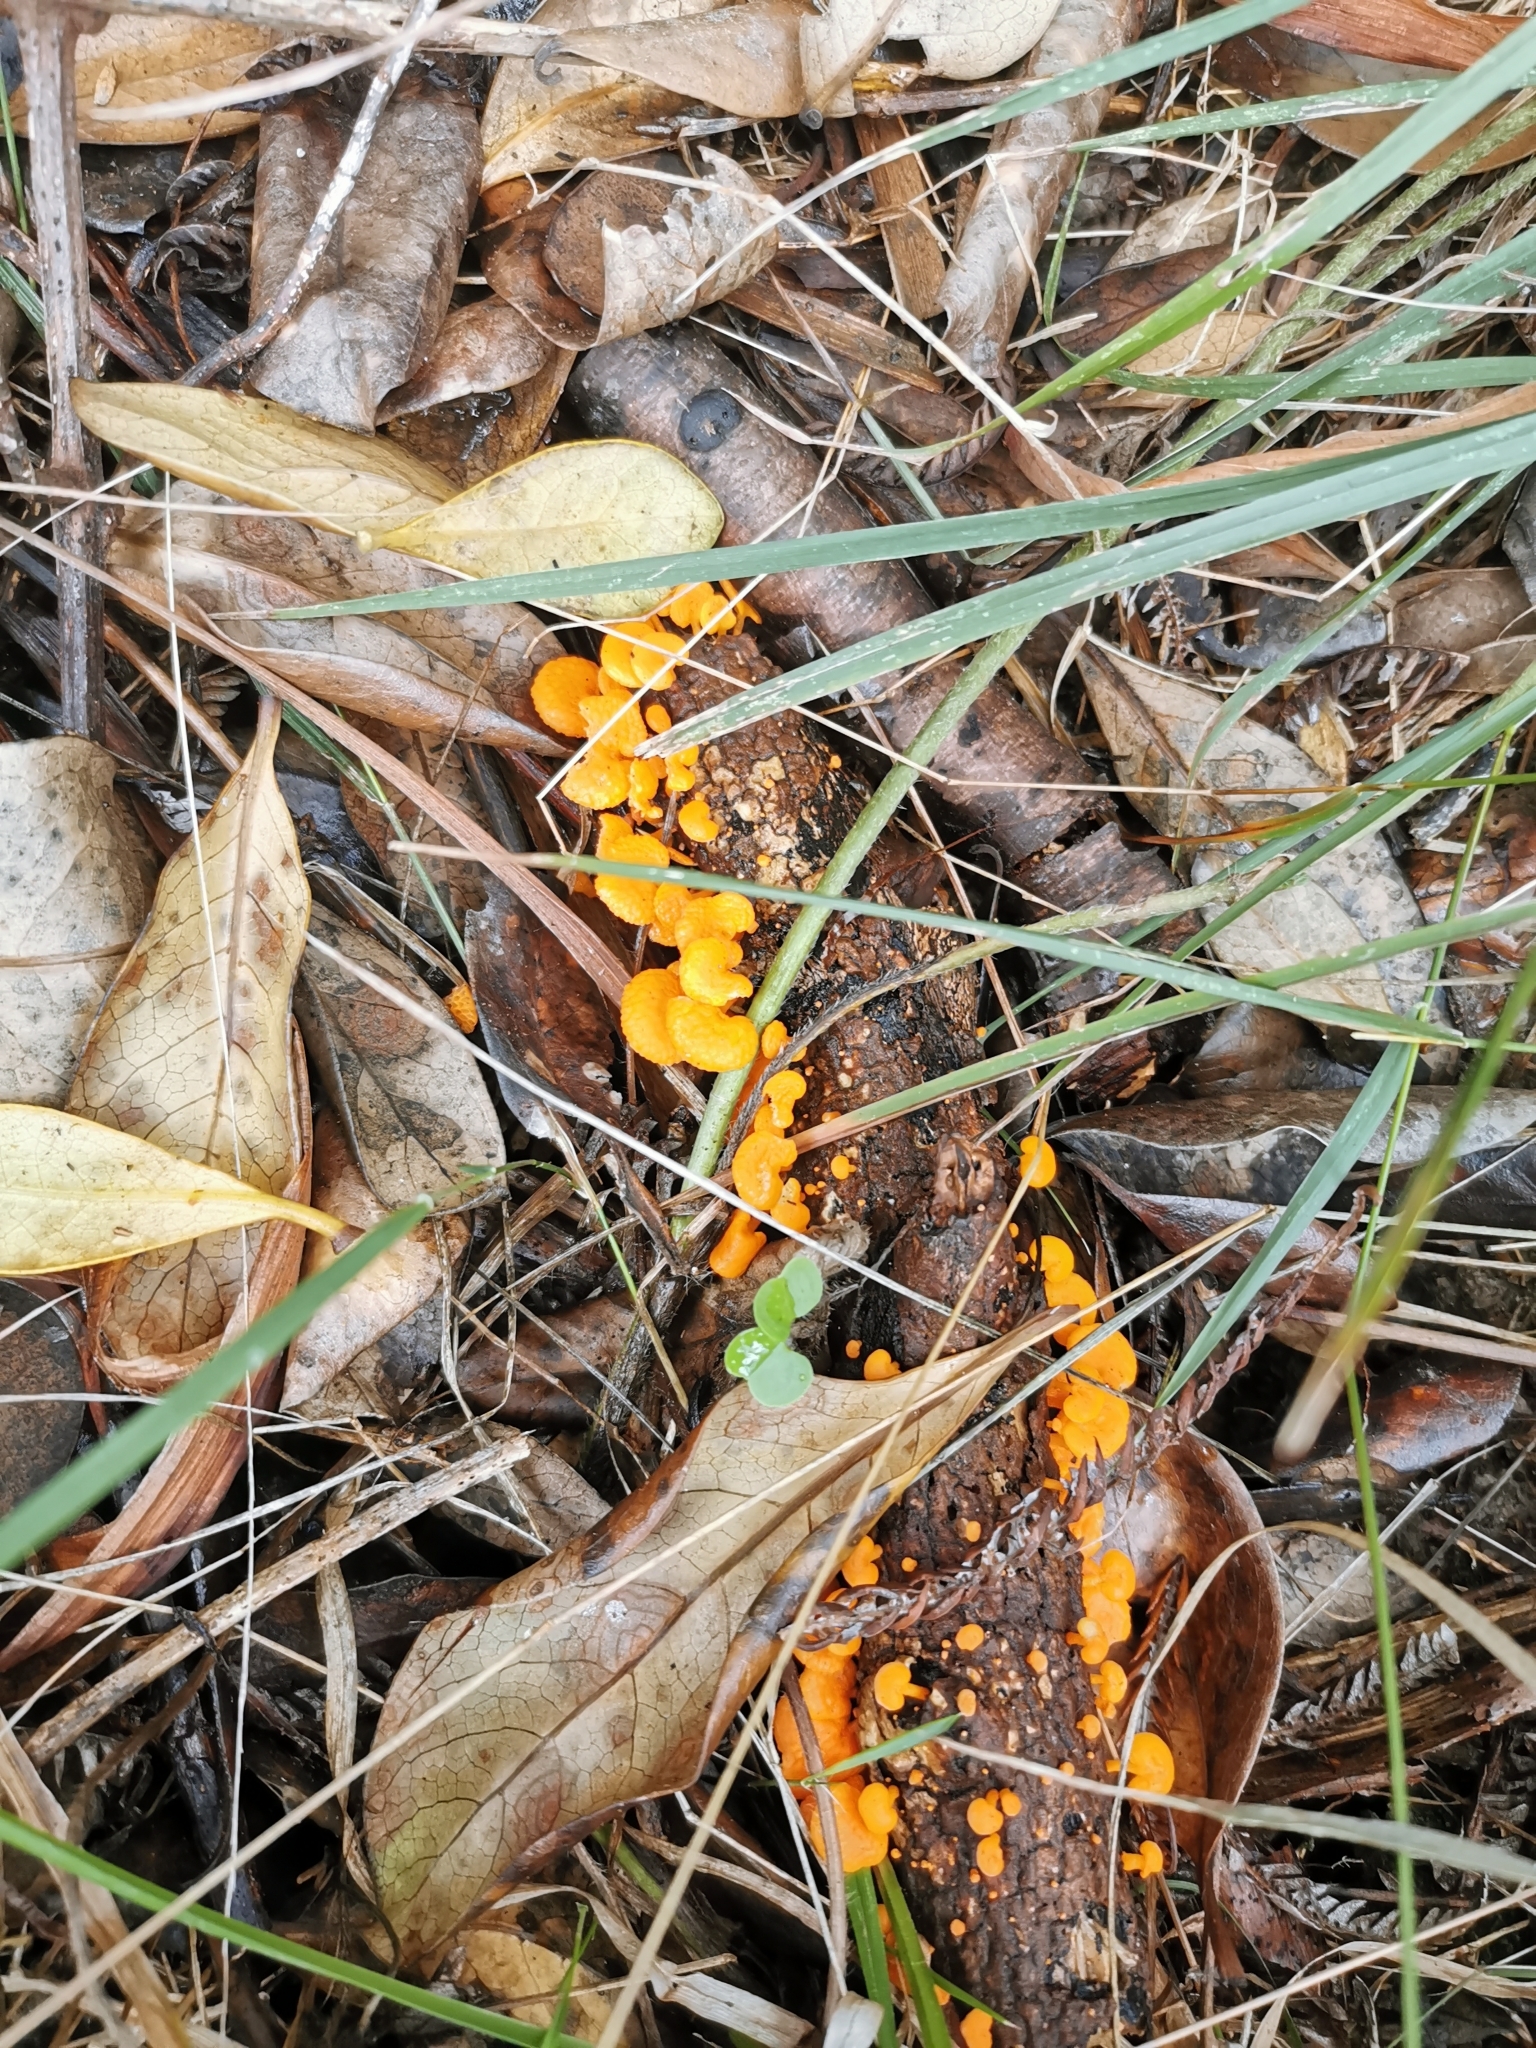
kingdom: Fungi
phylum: Basidiomycota
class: Agaricomycetes
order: Agaricales
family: Mycenaceae
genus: Favolaschia
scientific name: Favolaschia claudopus
